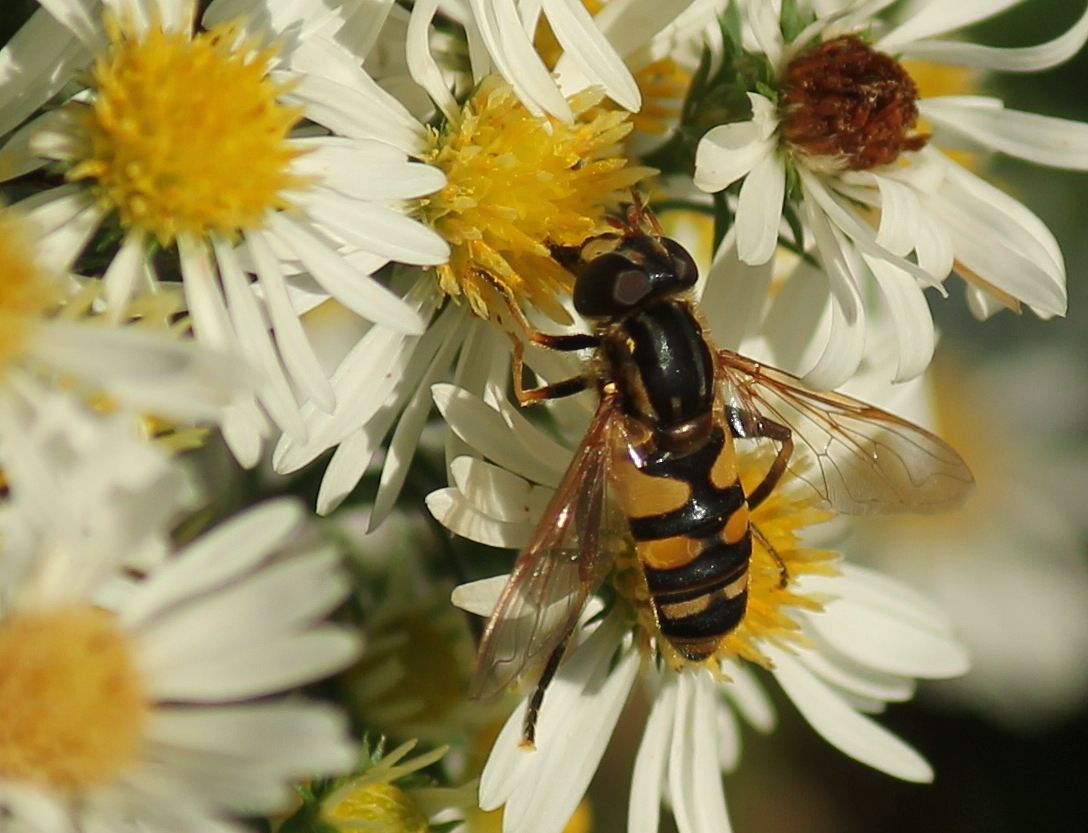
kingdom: Animalia
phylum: Arthropoda
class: Insecta
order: Diptera
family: Syrphidae
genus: Helophilus
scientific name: Helophilus fasciatus
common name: Narrow-headed marsh fly
